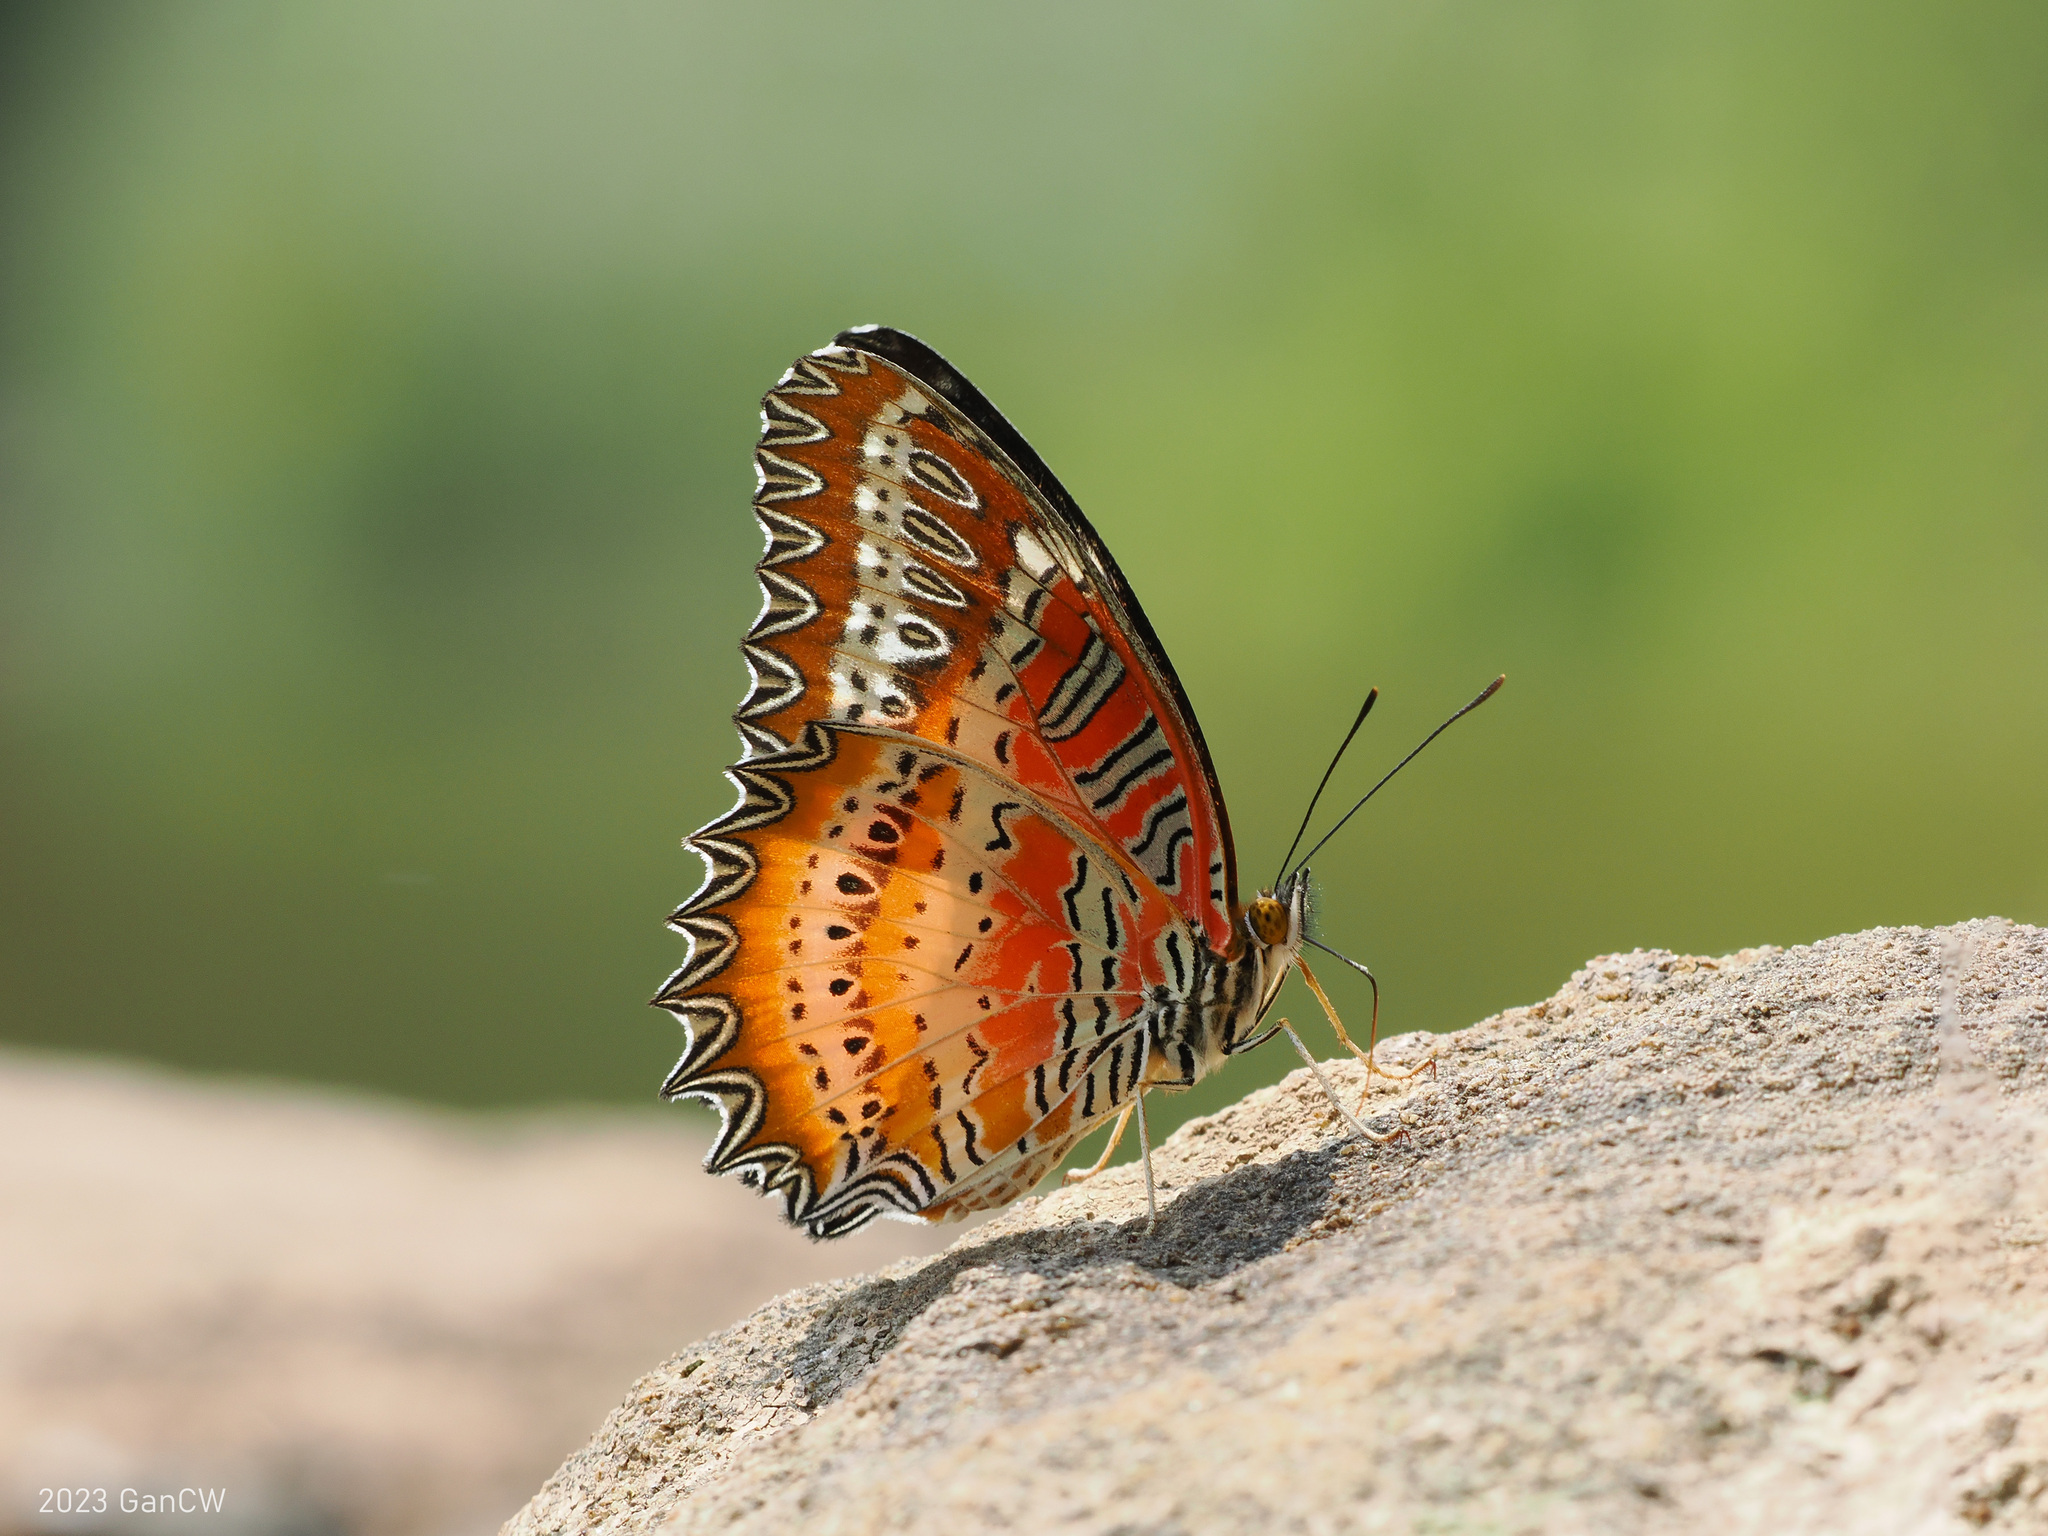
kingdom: Animalia
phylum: Arthropoda
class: Insecta
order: Lepidoptera
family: Nymphalidae
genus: Cethosia
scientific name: Cethosia biblis
